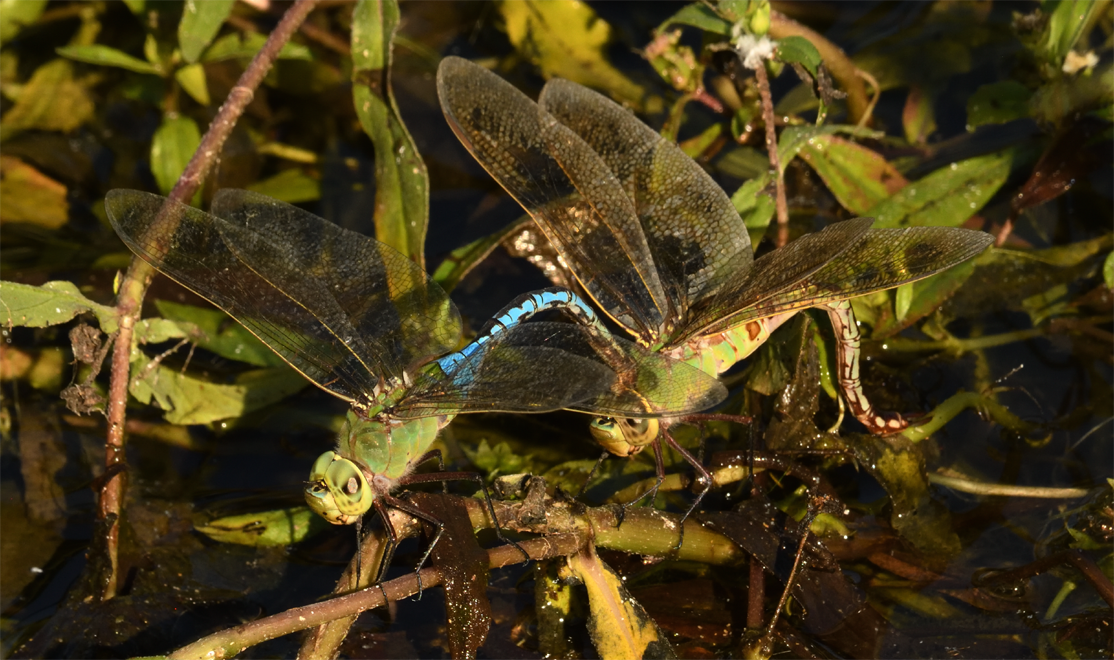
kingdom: Animalia
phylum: Arthropoda
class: Insecta
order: Odonata
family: Aeshnidae
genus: Anax
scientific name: Anax junius
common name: Common green darner
